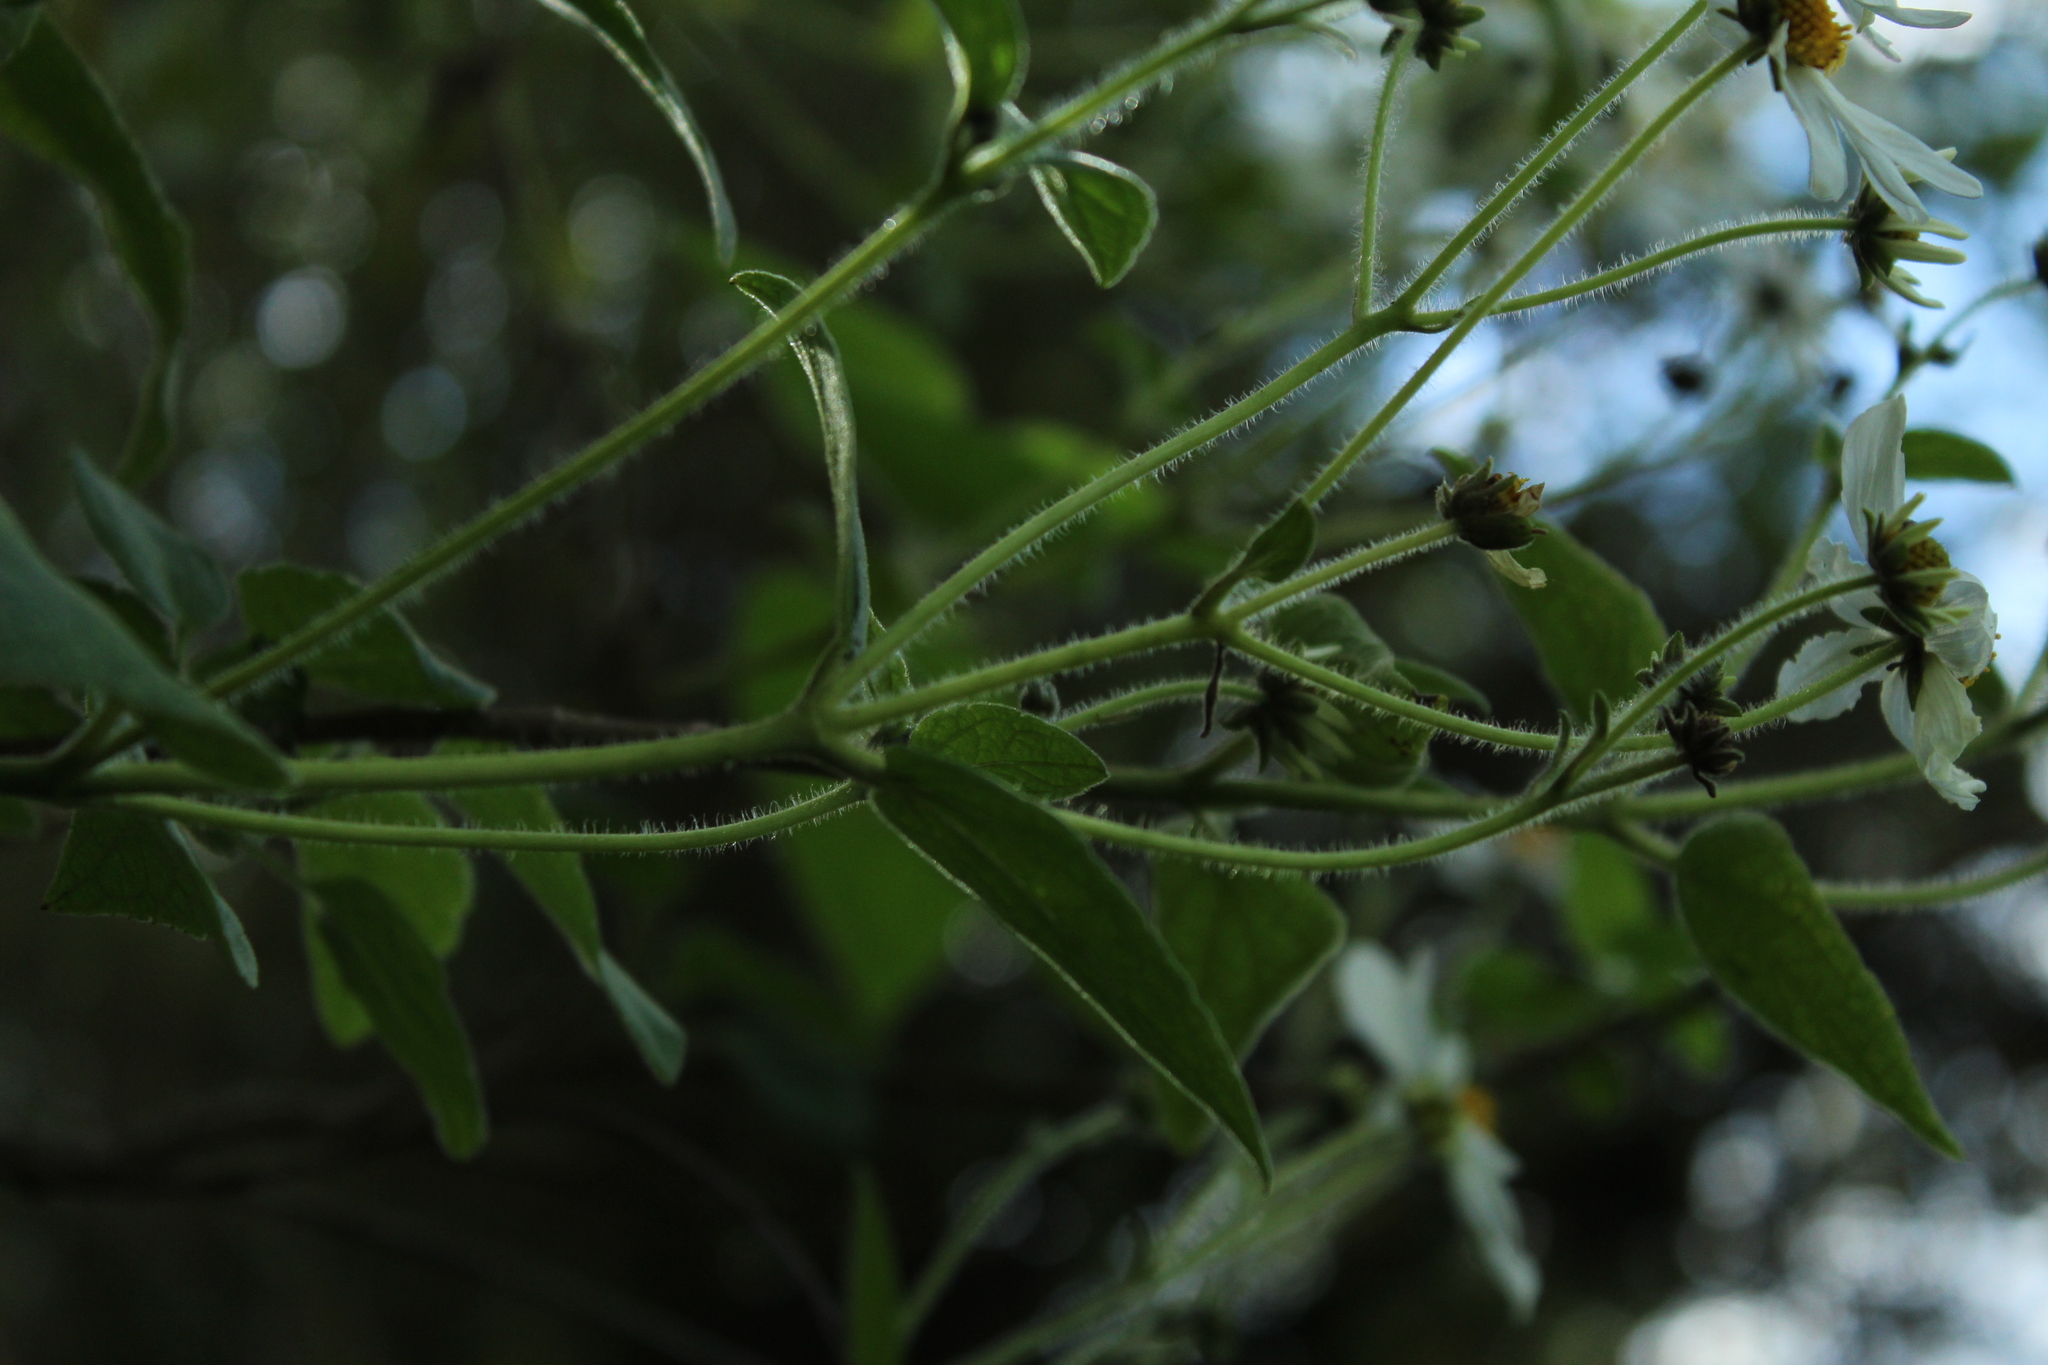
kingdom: Plantae
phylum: Tracheophyta
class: Magnoliopsida
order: Asterales
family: Asteraceae
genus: Montanoa
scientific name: Montanoa ovalifolia
